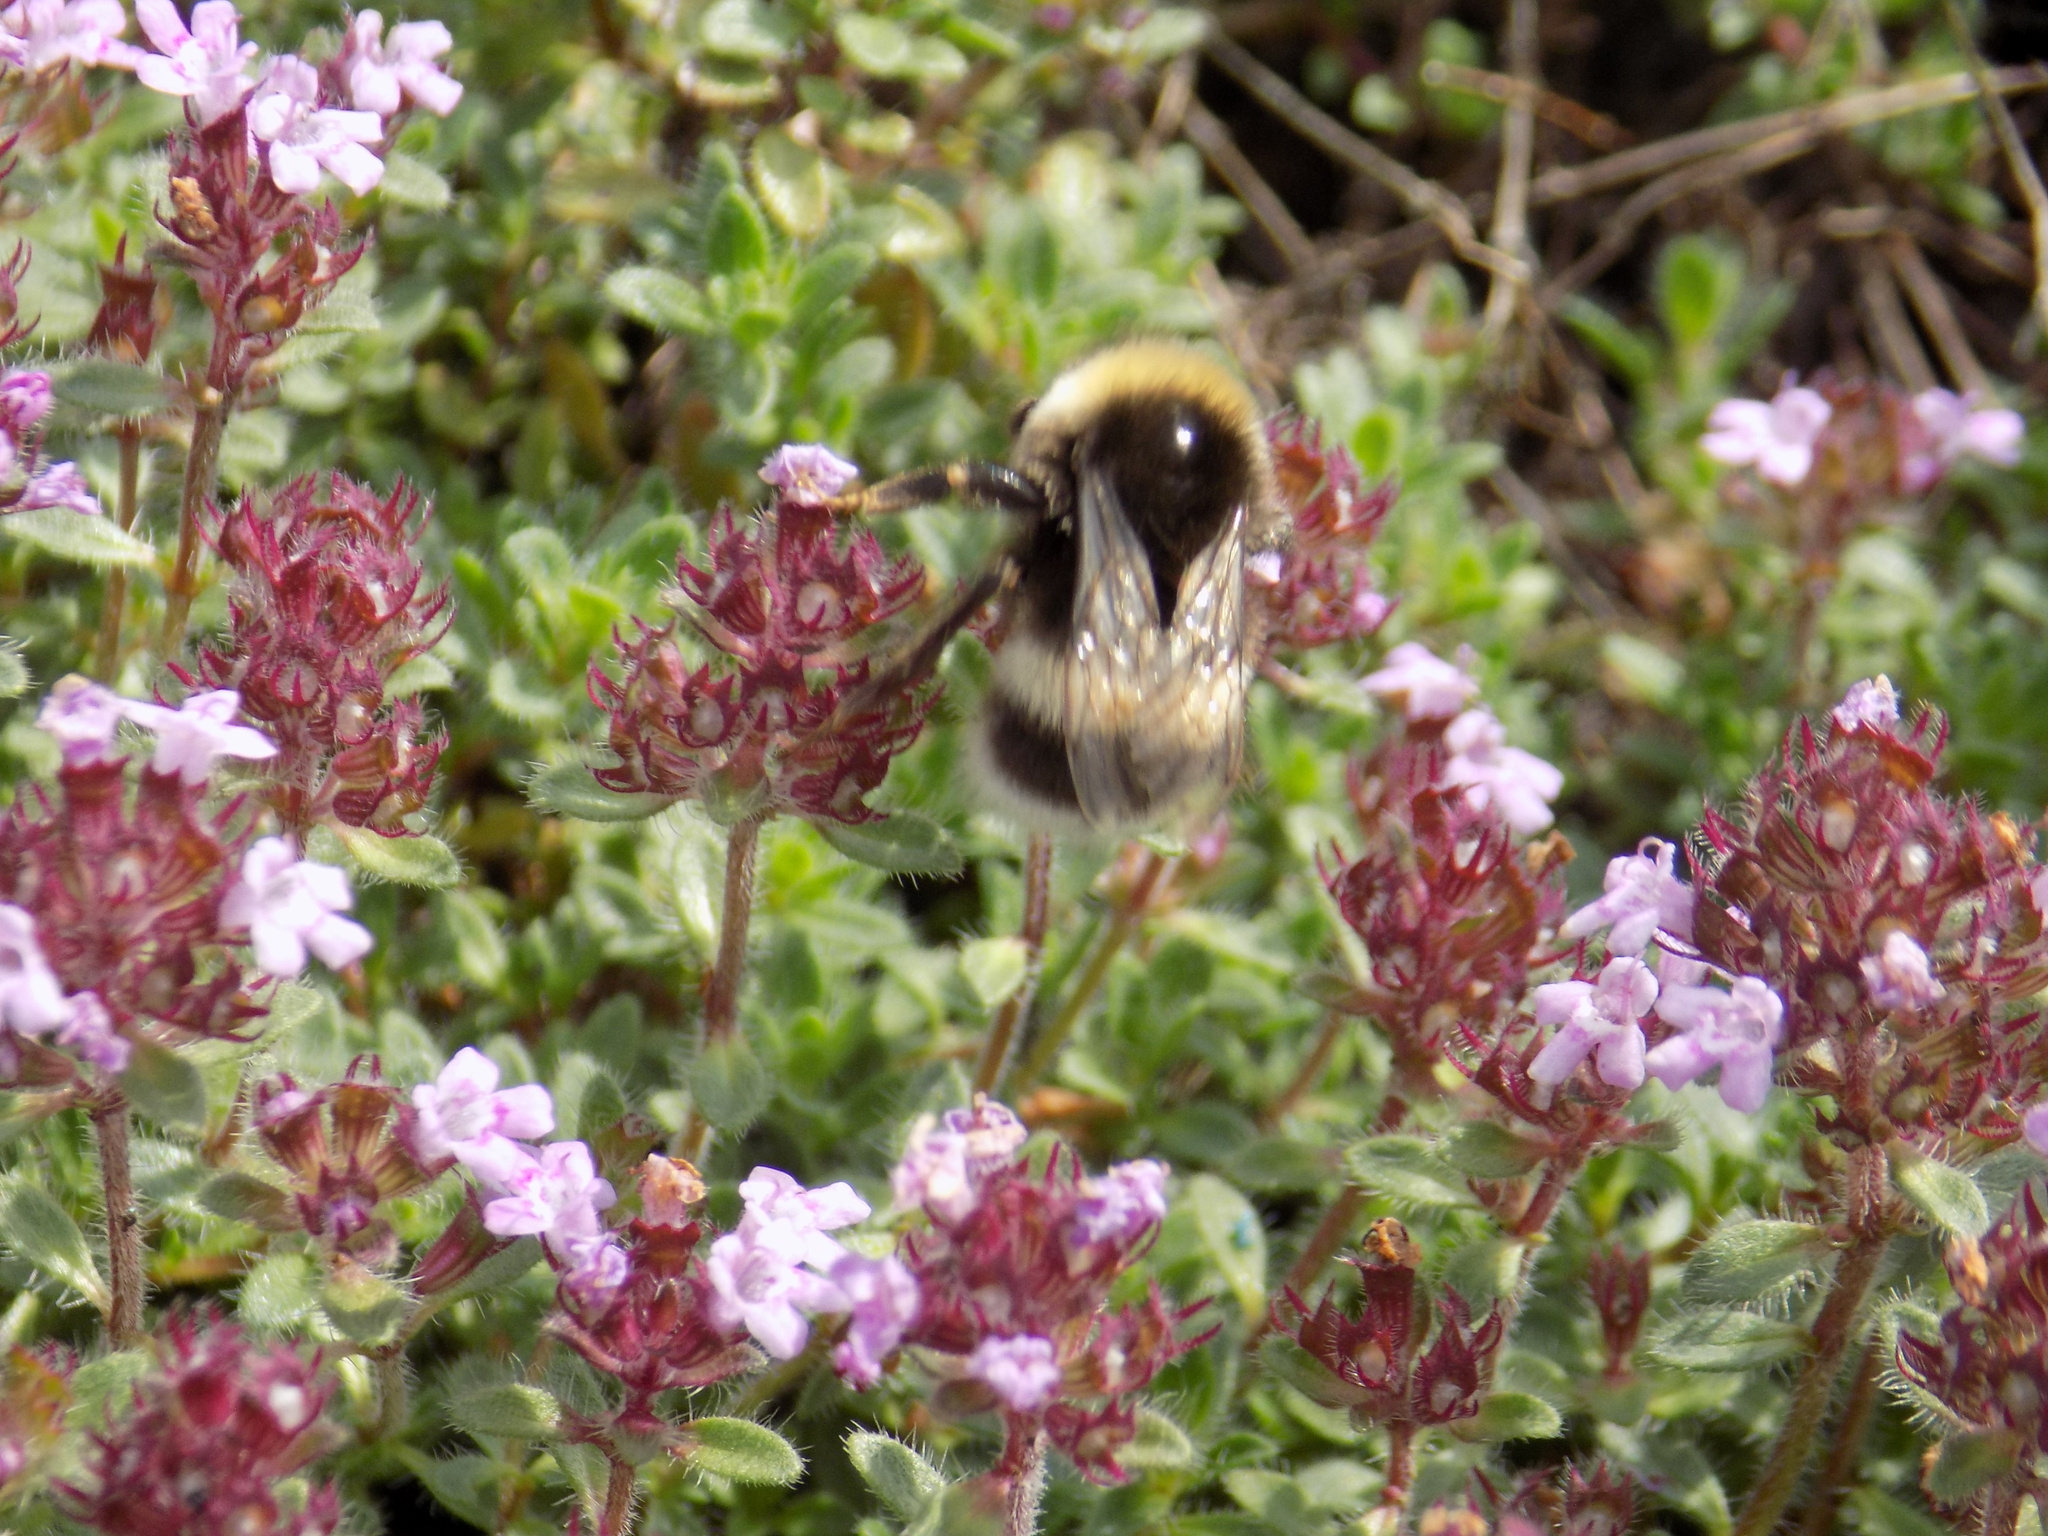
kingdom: Animalia
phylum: Arthropoda
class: Insecta
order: Hymenoptera
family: Apidae
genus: Bombus
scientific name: Bombus
